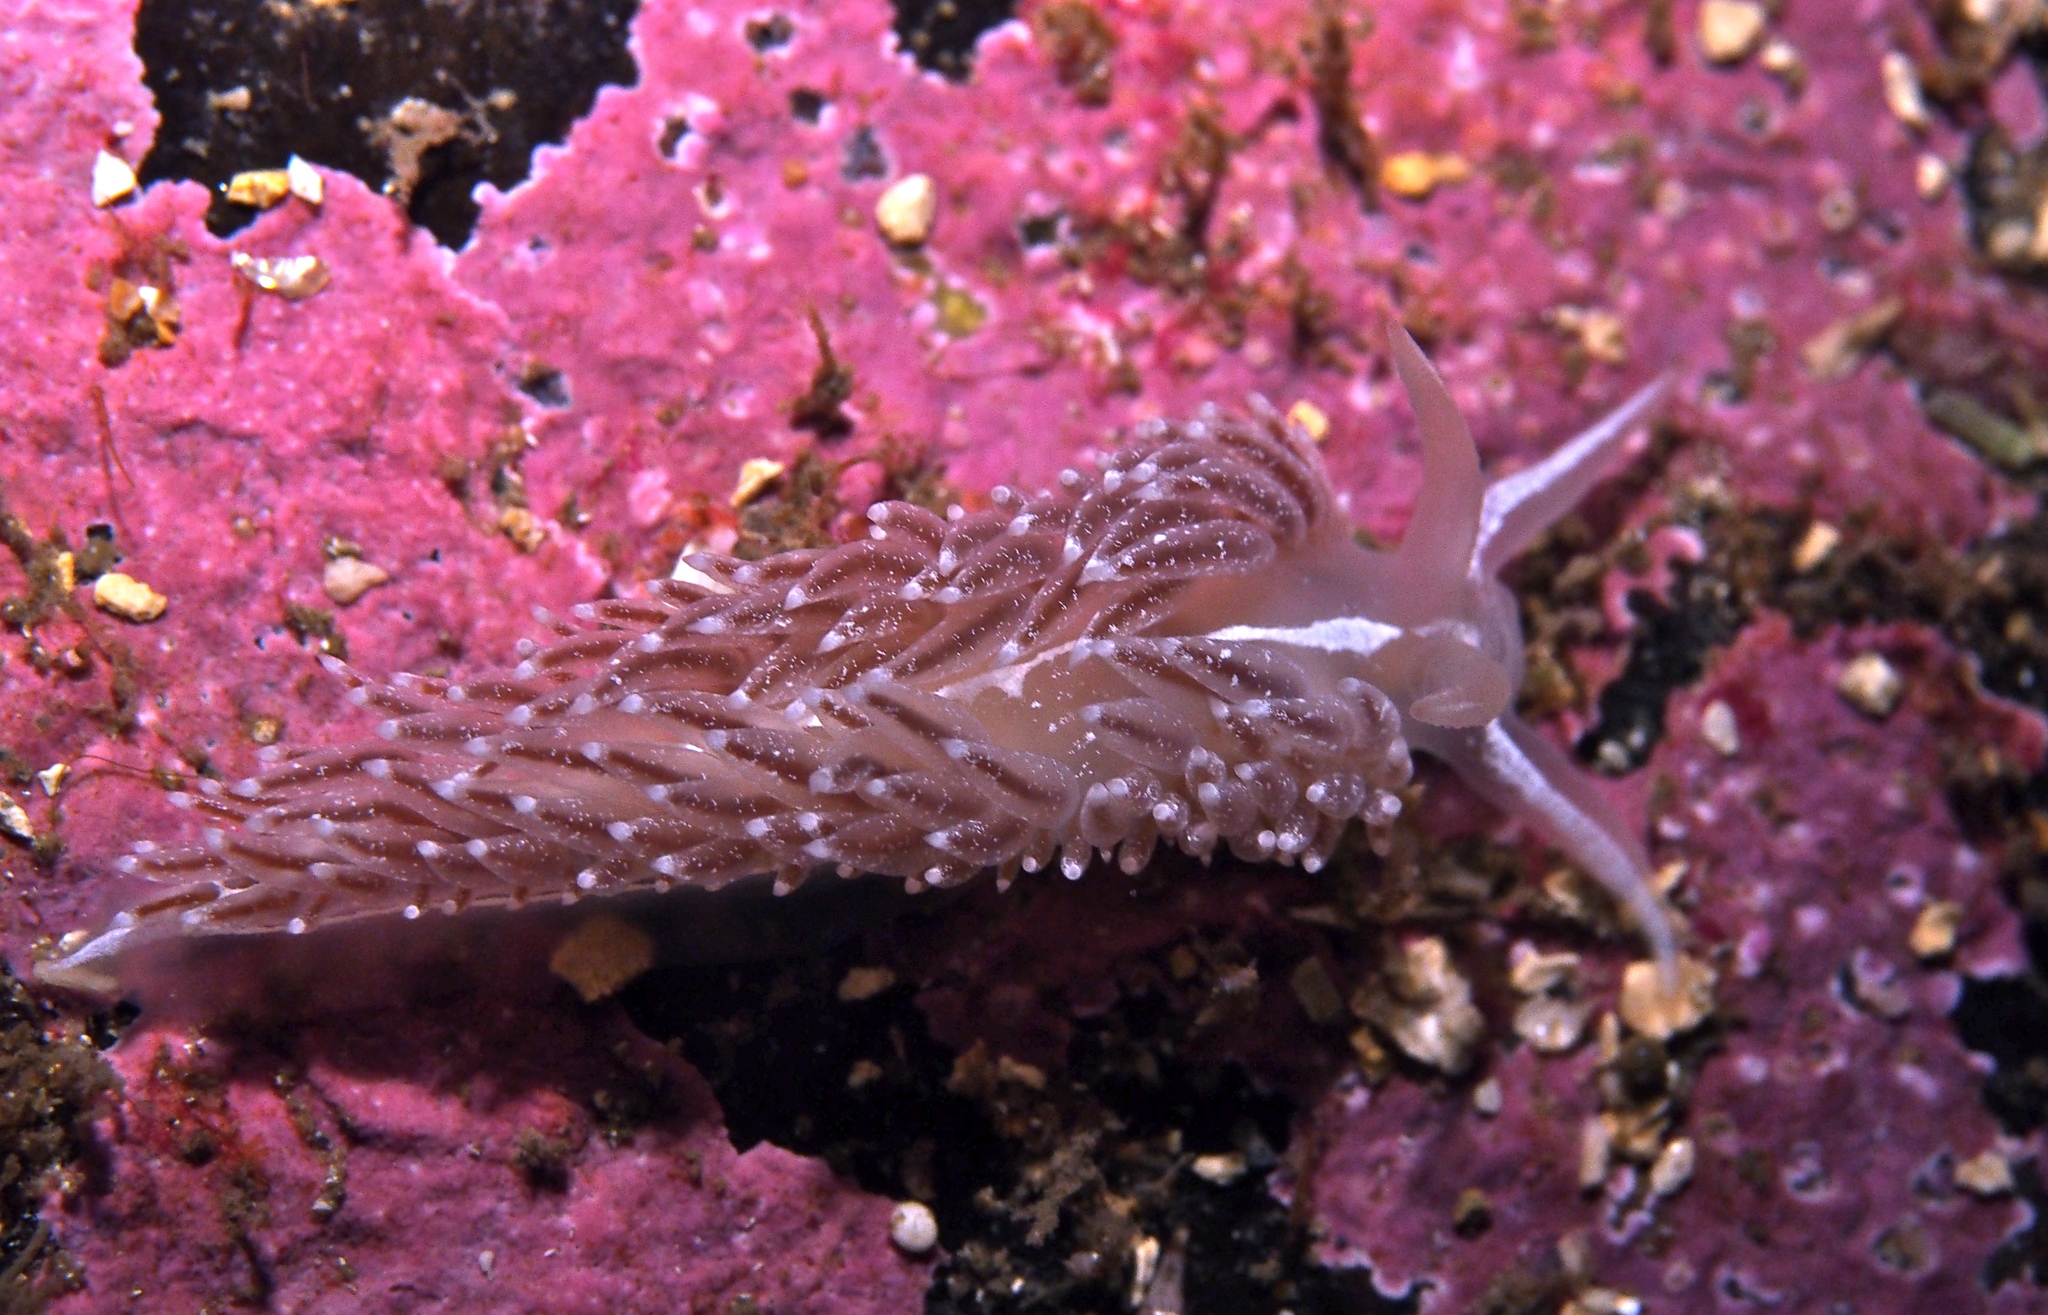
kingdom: Animalia
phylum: Mollusca
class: Gastropoda
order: Nudibranchia
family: Coryphellidae
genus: Coryphella
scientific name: Coryphella monicae
